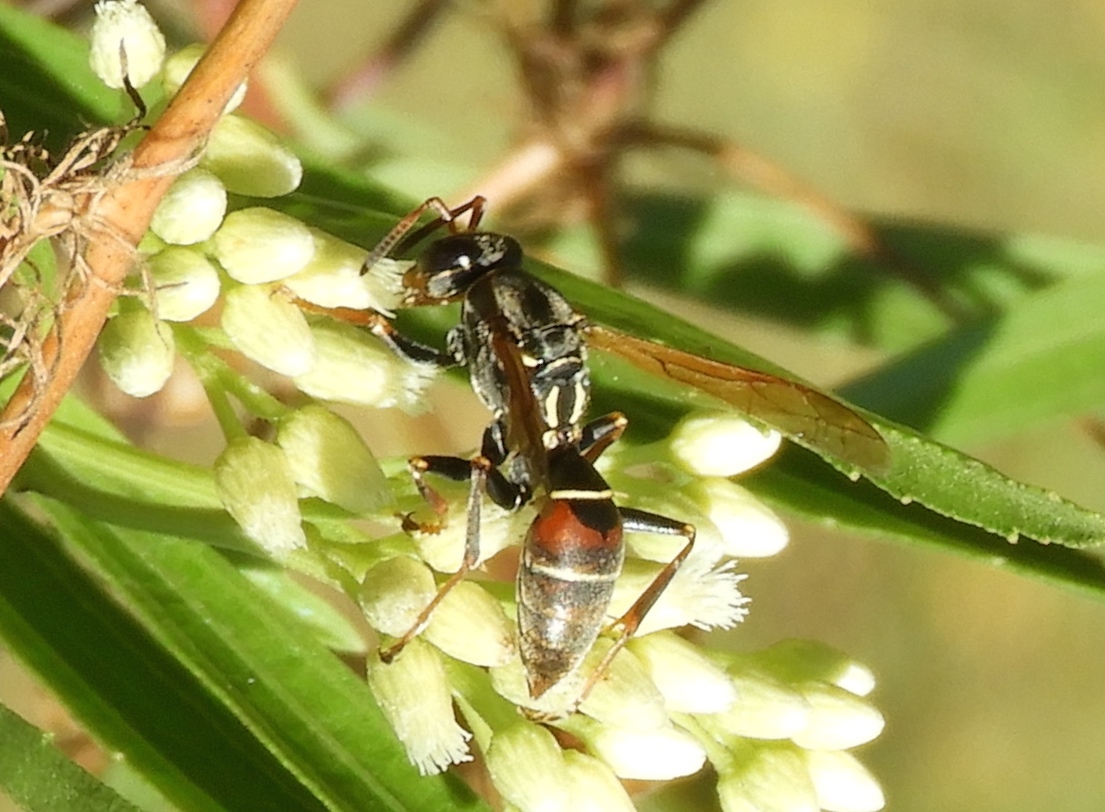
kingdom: Animalia
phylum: Arthropoda
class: Insecta
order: Hymenoptera
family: Eumenidae
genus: Polistes
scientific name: Polistes pacificus
